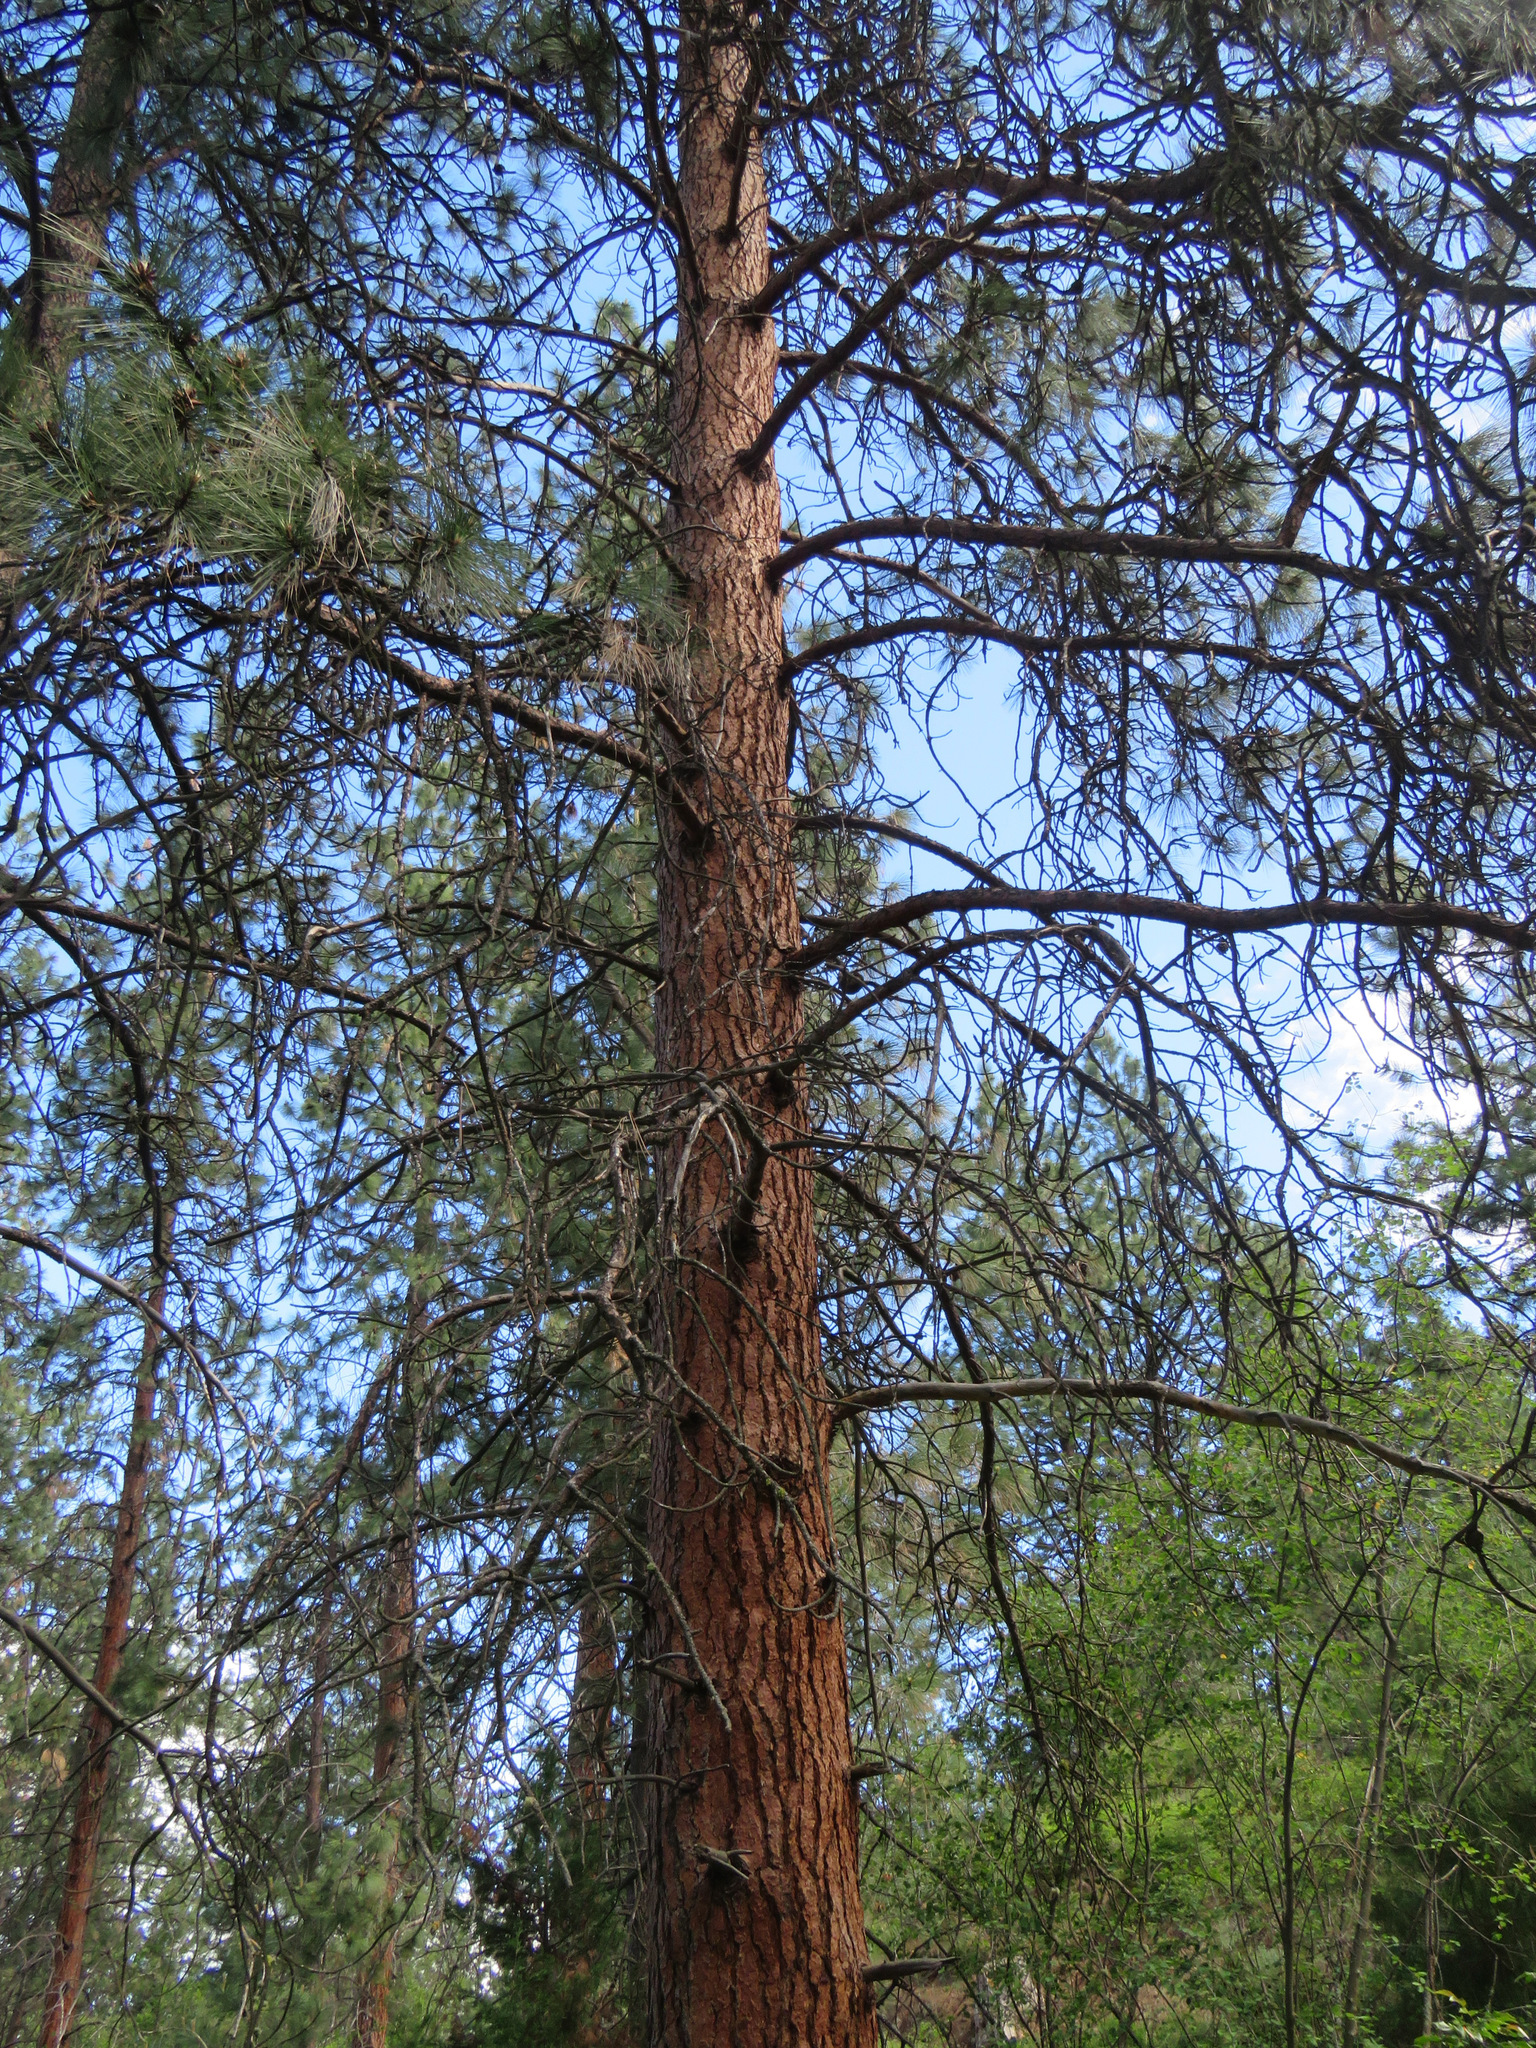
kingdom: Plantae
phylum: Tracheophyta
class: Pinopsida
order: Pinales
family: Pinaceae
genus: Pinus
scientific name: Pinus ponderosa
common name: Western yellow-pine
